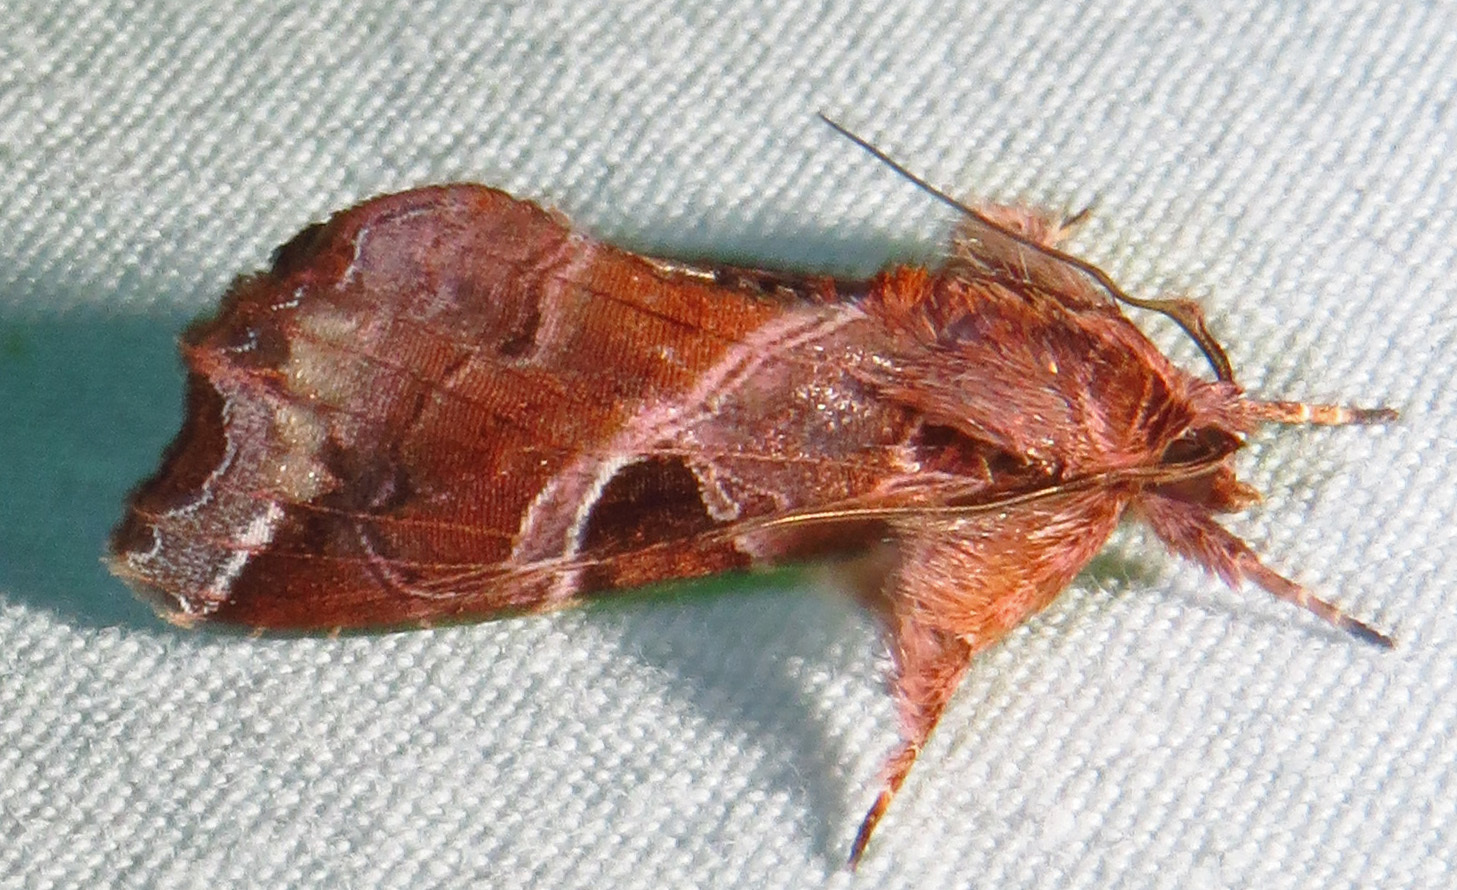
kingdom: Animalia
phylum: Arthropoda
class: Insecta
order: Lepidoptera
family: Noctuidae
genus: Callopistria
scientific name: Callopistria floridensis
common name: Florida fern moth
